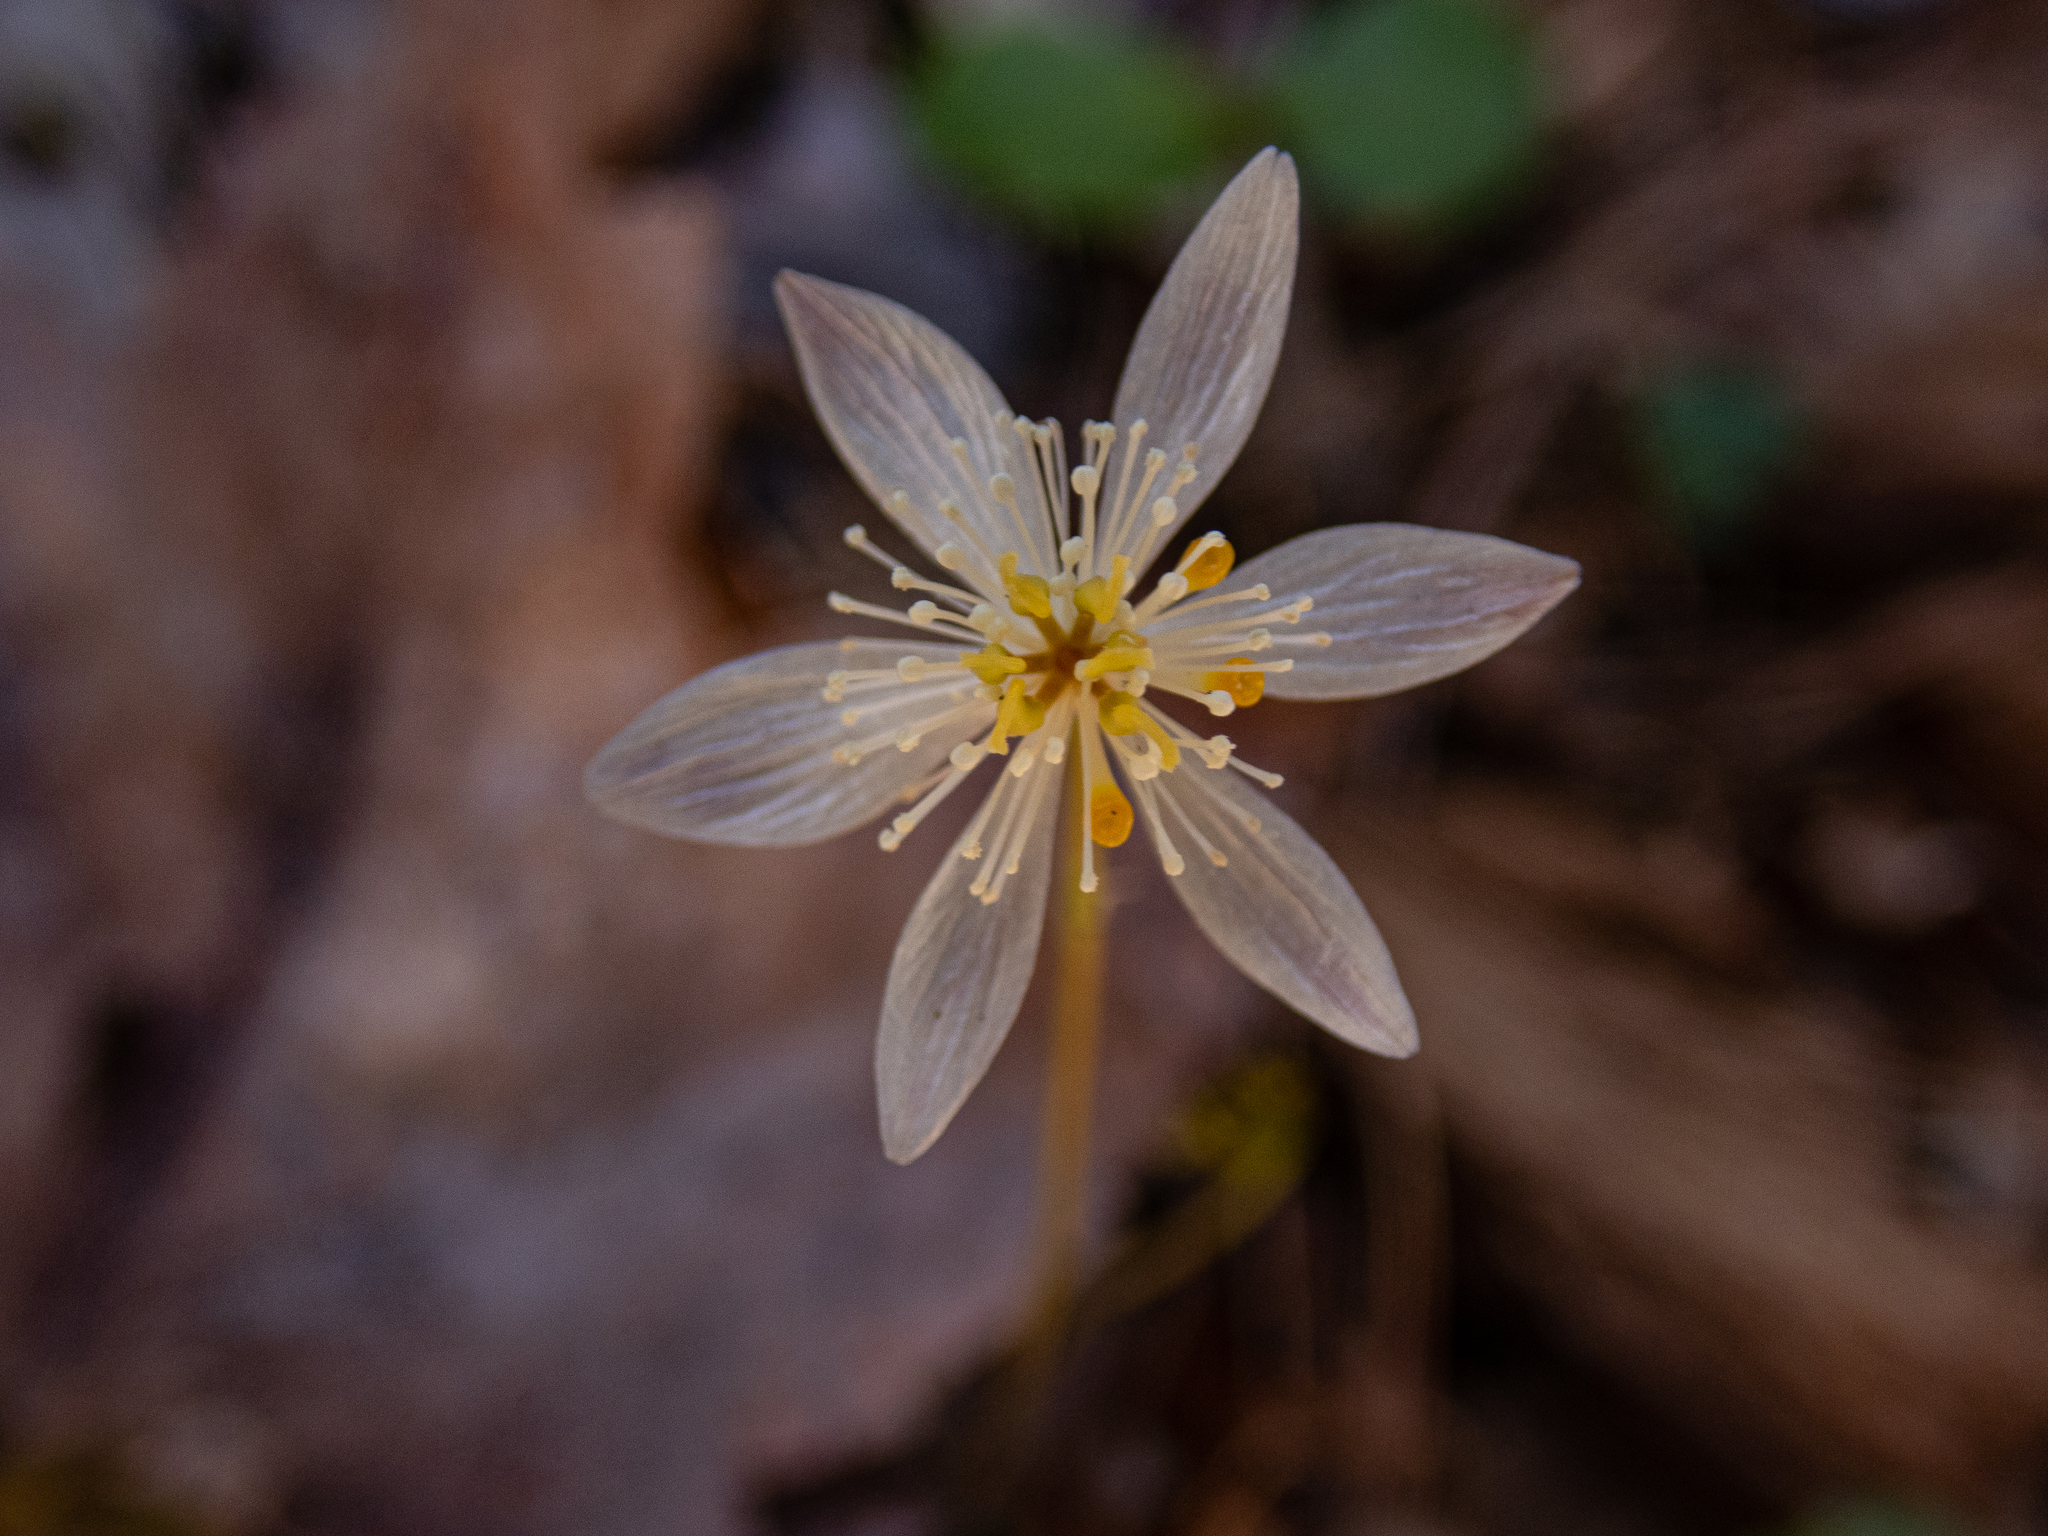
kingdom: Plantae
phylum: Tracheophyta
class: Magnoliopsida
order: Ranunculales
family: Ranunculaceae
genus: Coptis
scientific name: Coptis trifolia
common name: Canker-root
